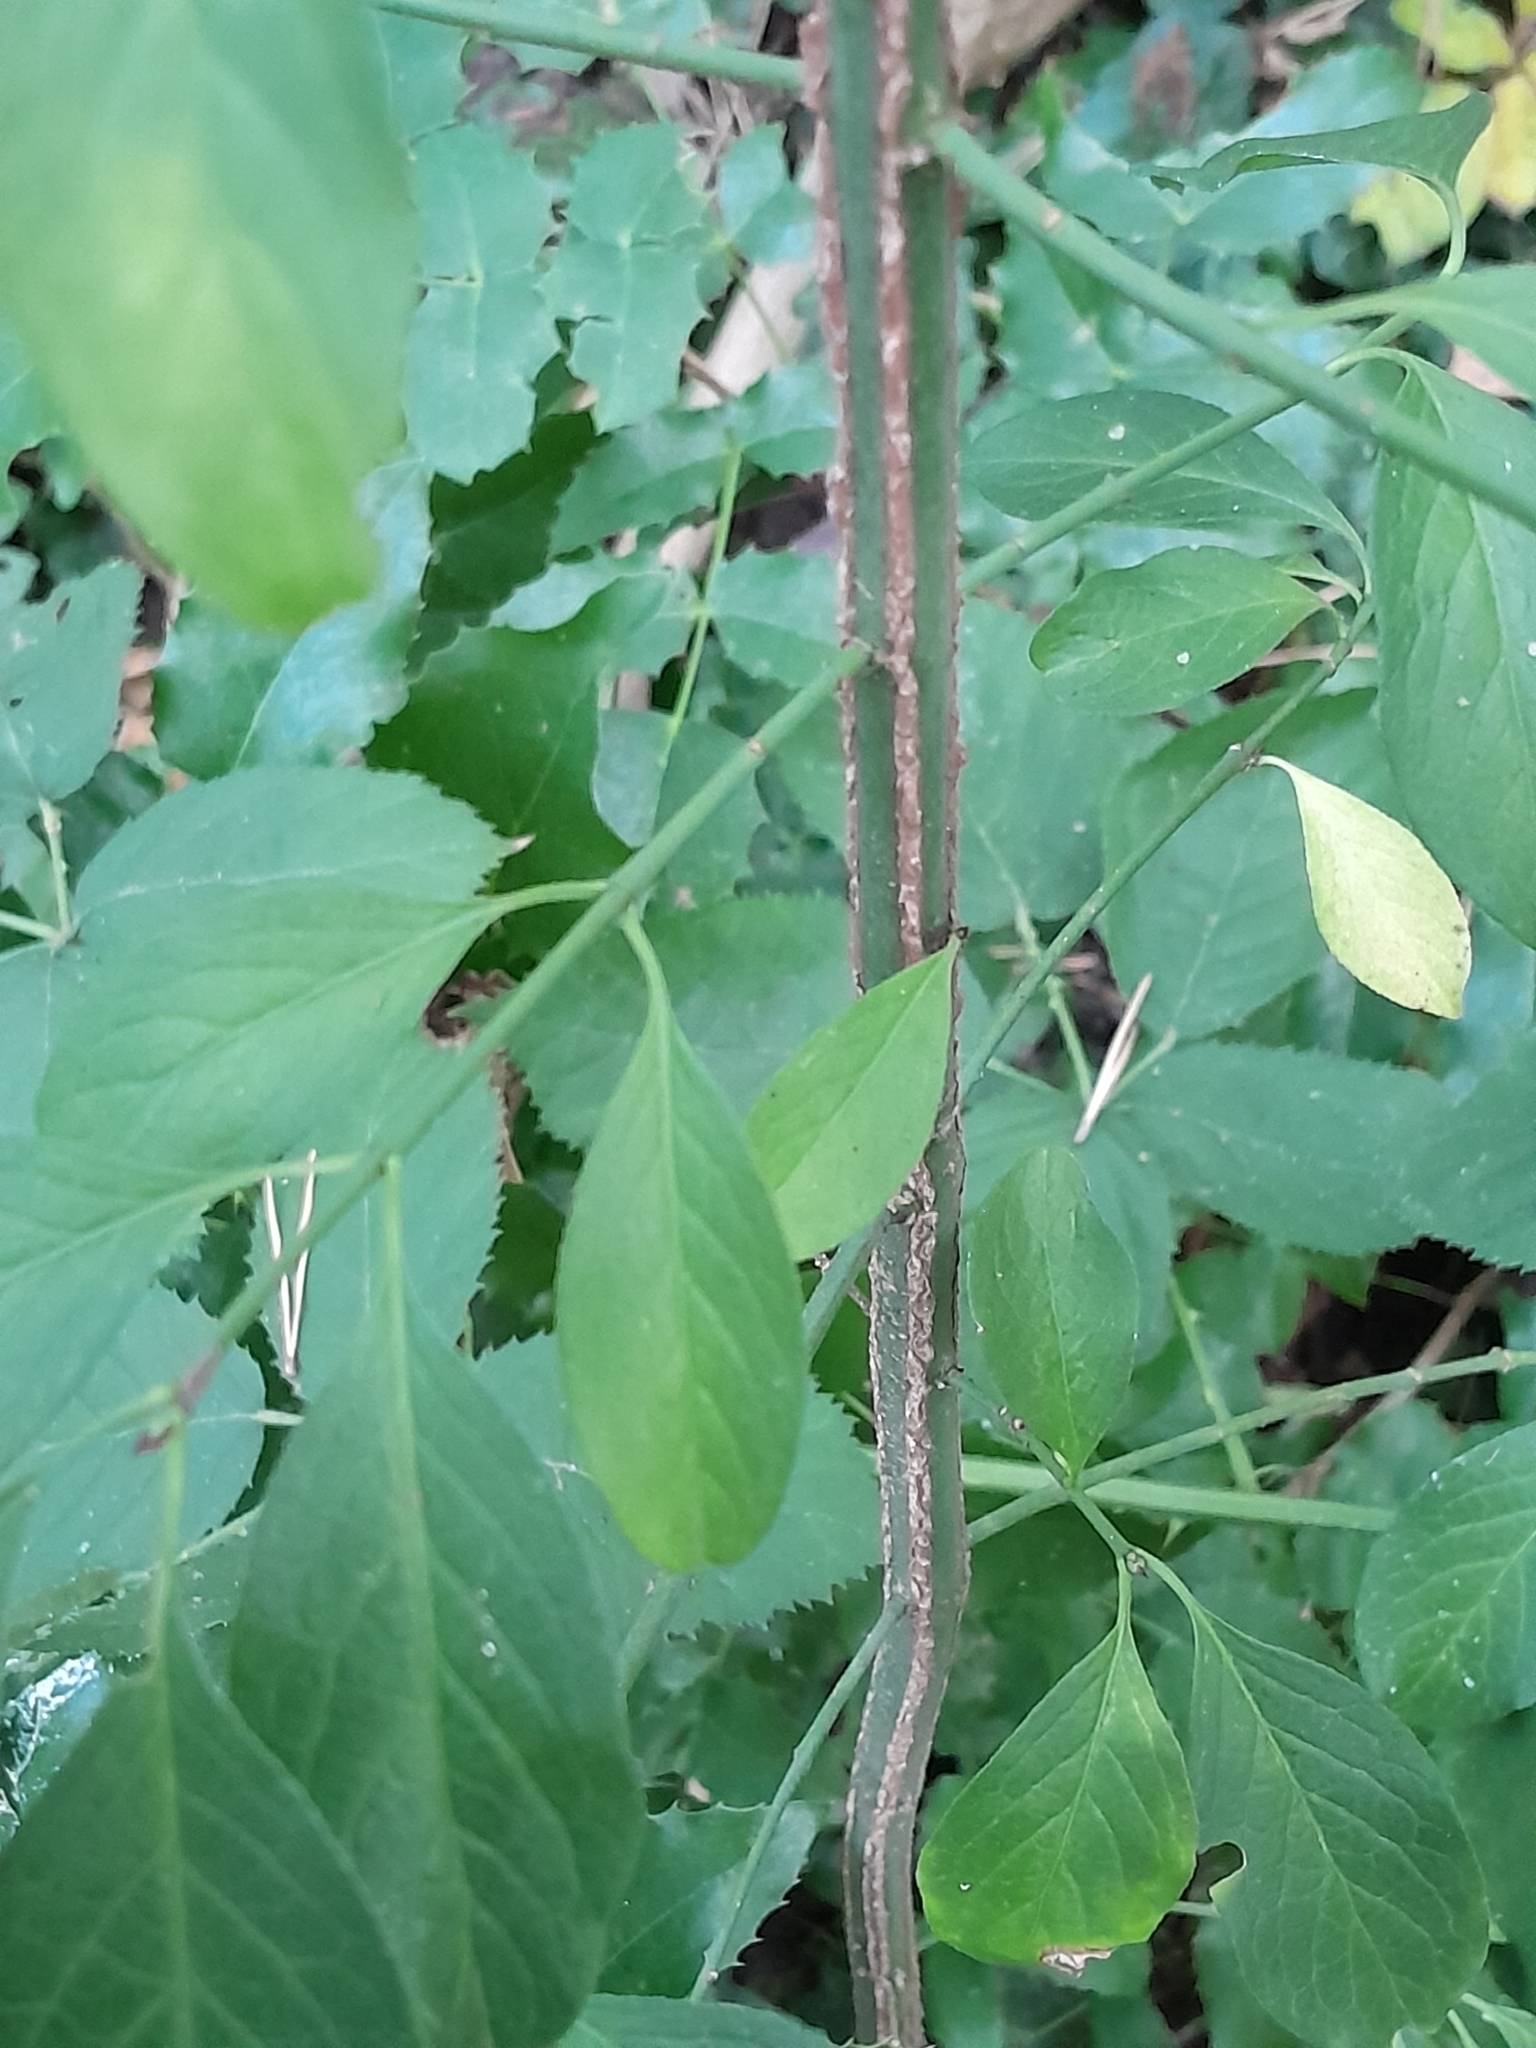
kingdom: Plantae
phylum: Tracheophyta
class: Magnoliopsida
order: Celastrales
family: Celastraceae
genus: Euonymus
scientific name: Euonymus europaeus
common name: Spindle
